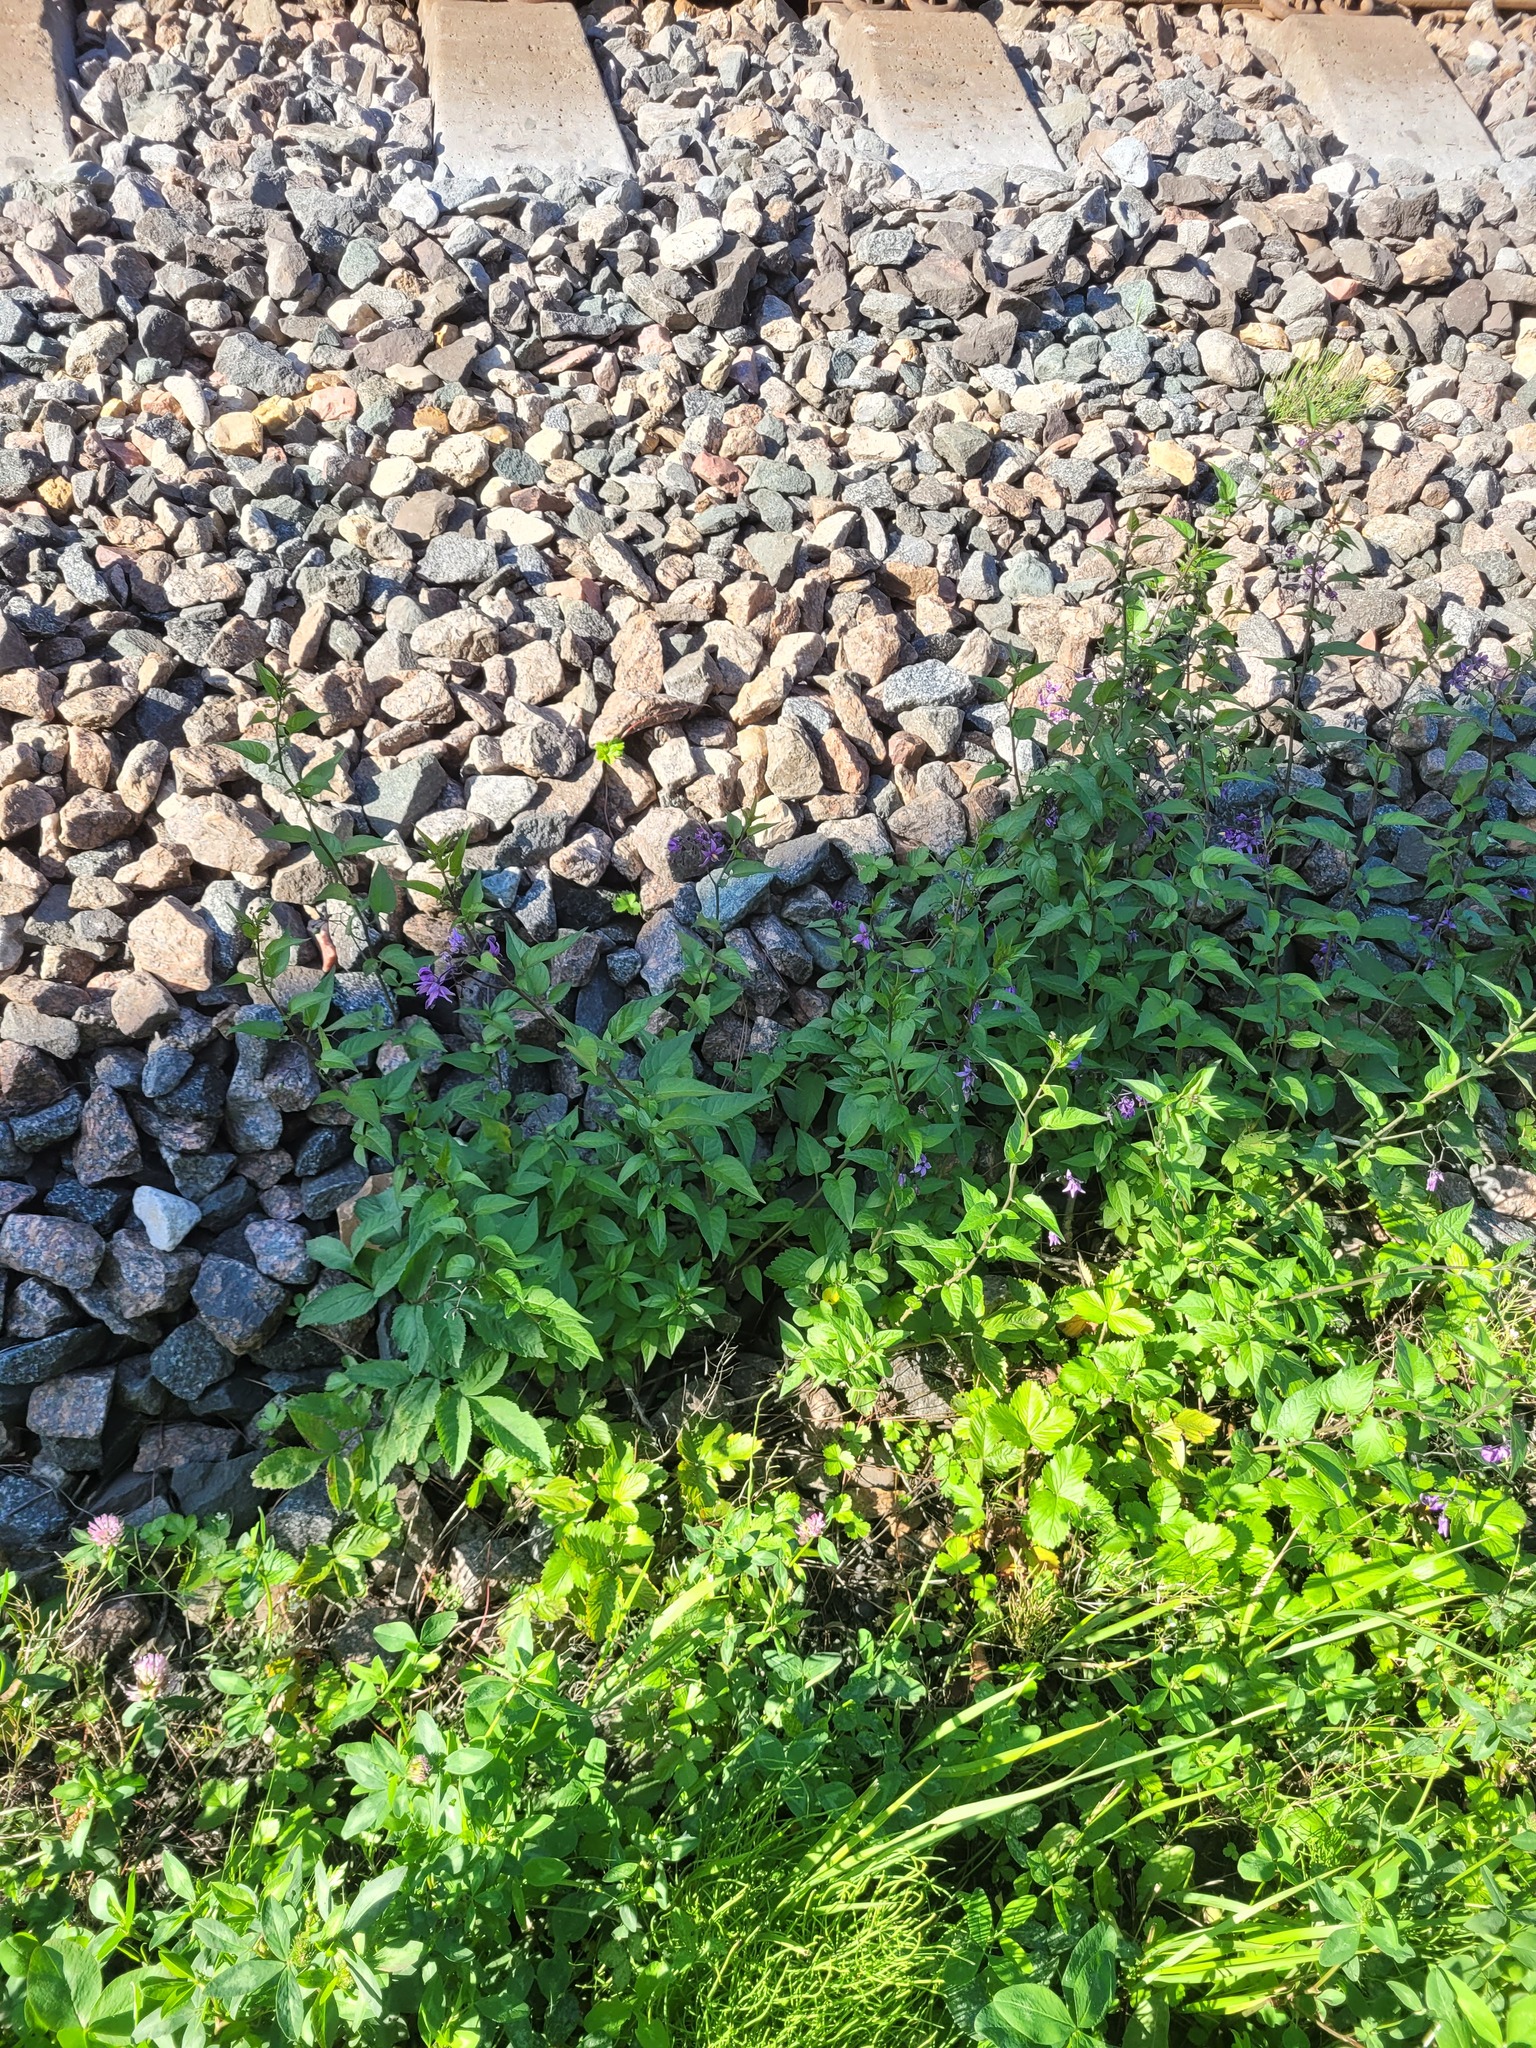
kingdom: Plantae
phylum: Tracheophyta
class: Magnoliopsida
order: Solanales
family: Solanaceae
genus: Solanum
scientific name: Solanum dulcamara
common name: Climbing nightshade
